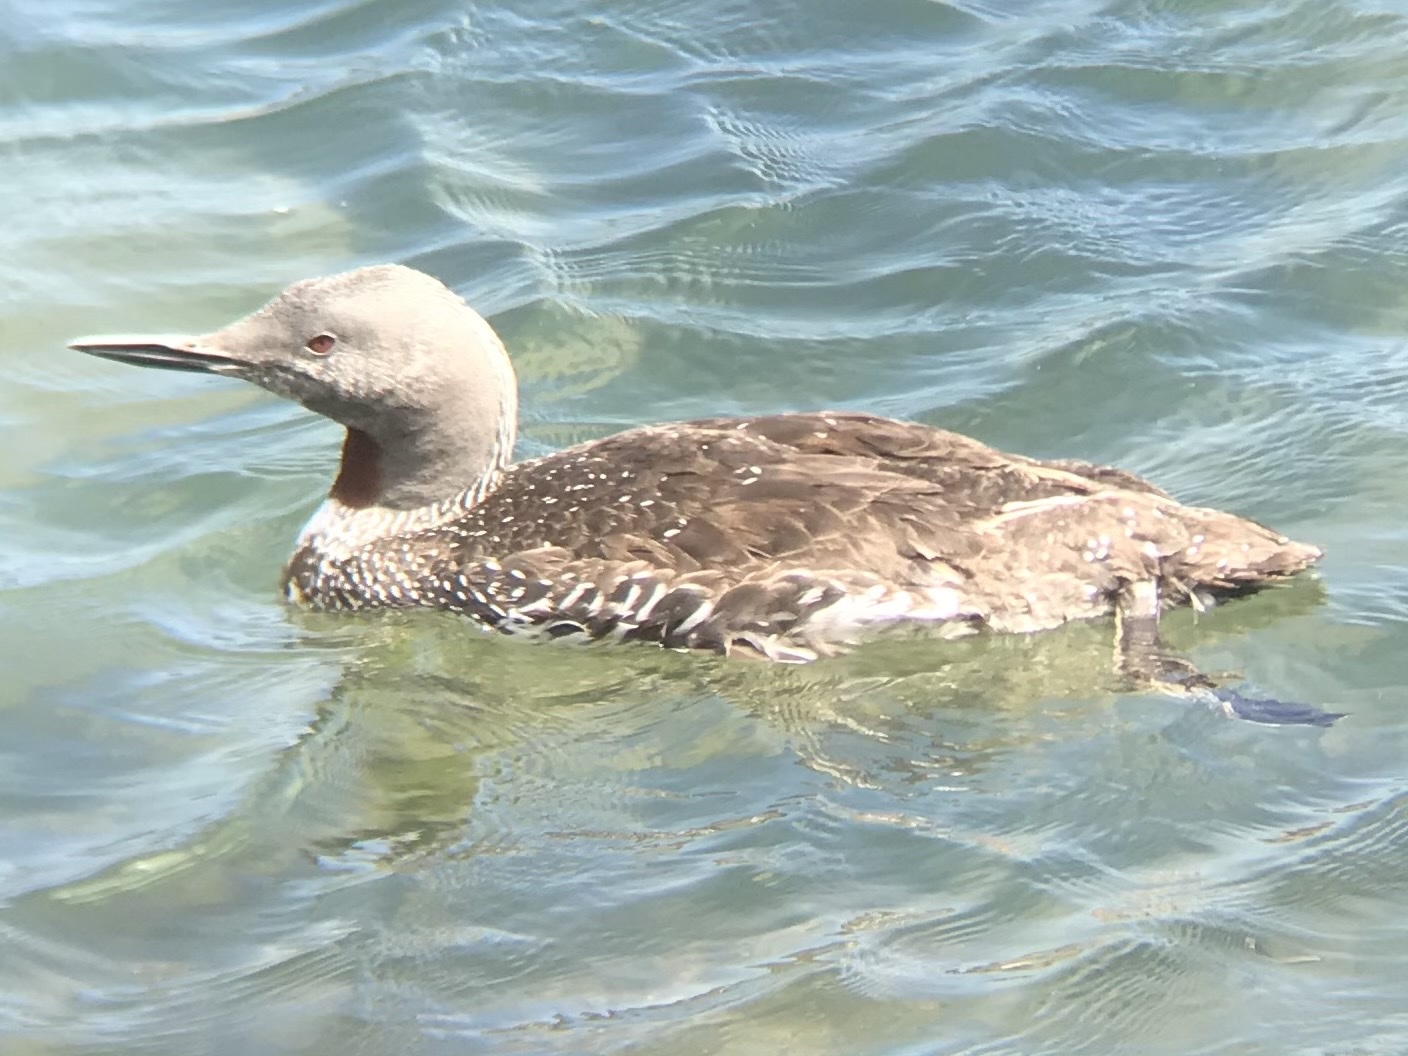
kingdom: Animalia
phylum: Chordata
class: Aves
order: Gaviiformes
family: Gaviidae
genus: Gavia
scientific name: Gavia stellata
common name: Red-throated loon
